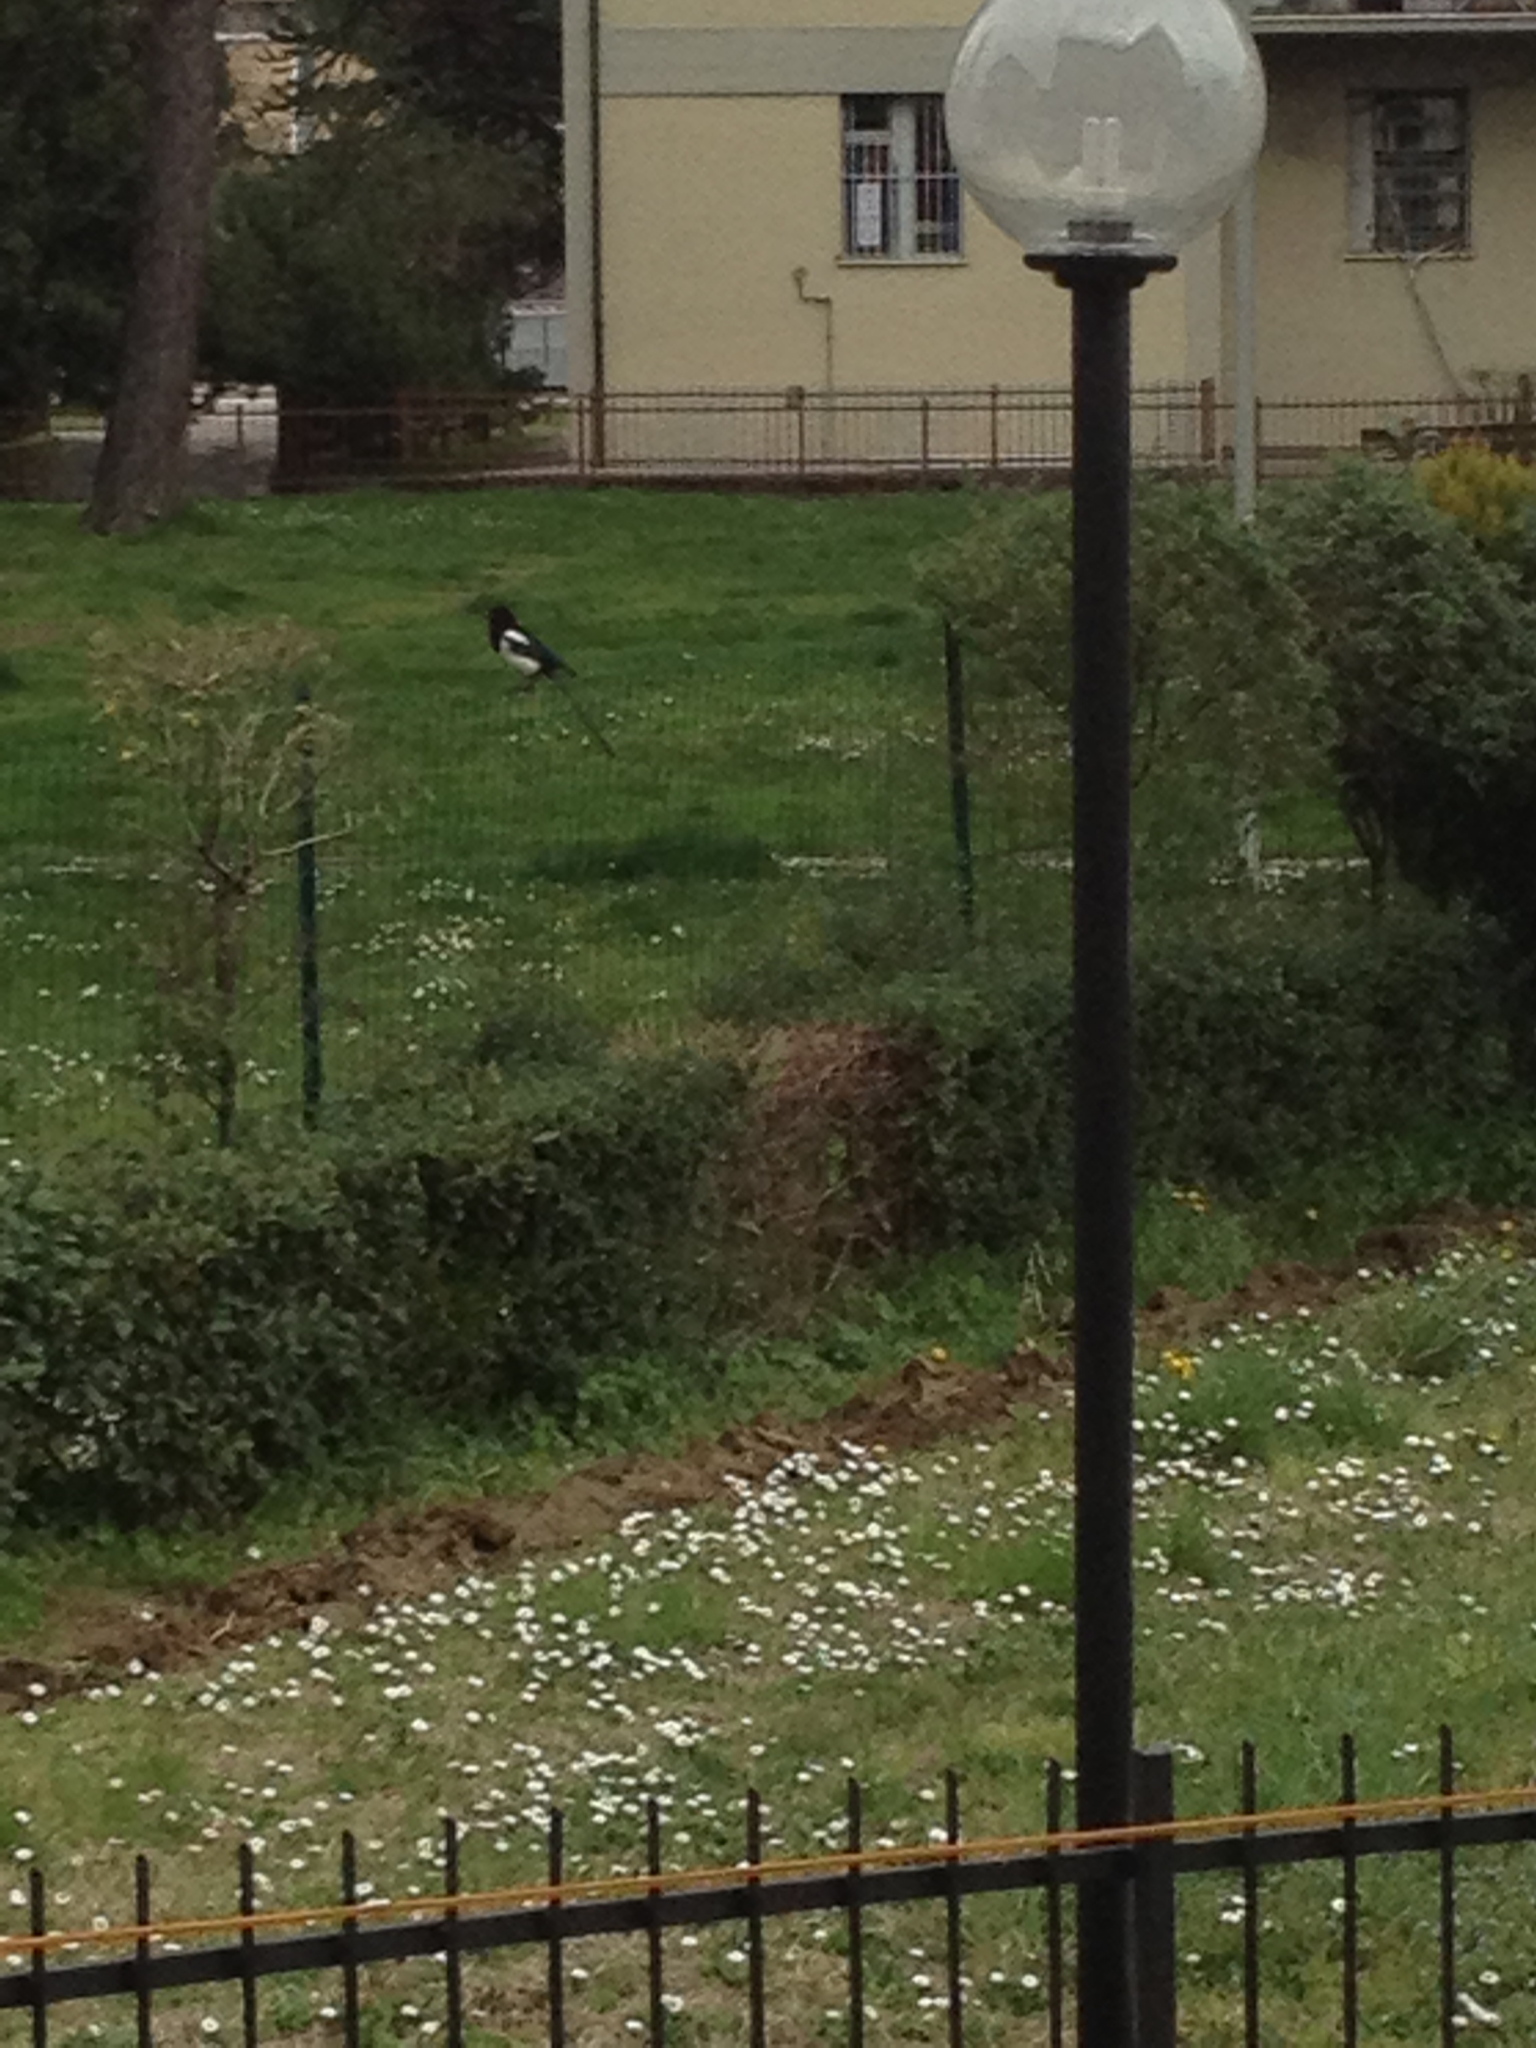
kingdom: Animalia
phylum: Chordata
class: Aves
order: Passeriformes
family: Corvidae
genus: Pica
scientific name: Pica pica
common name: Eurasian magpie
